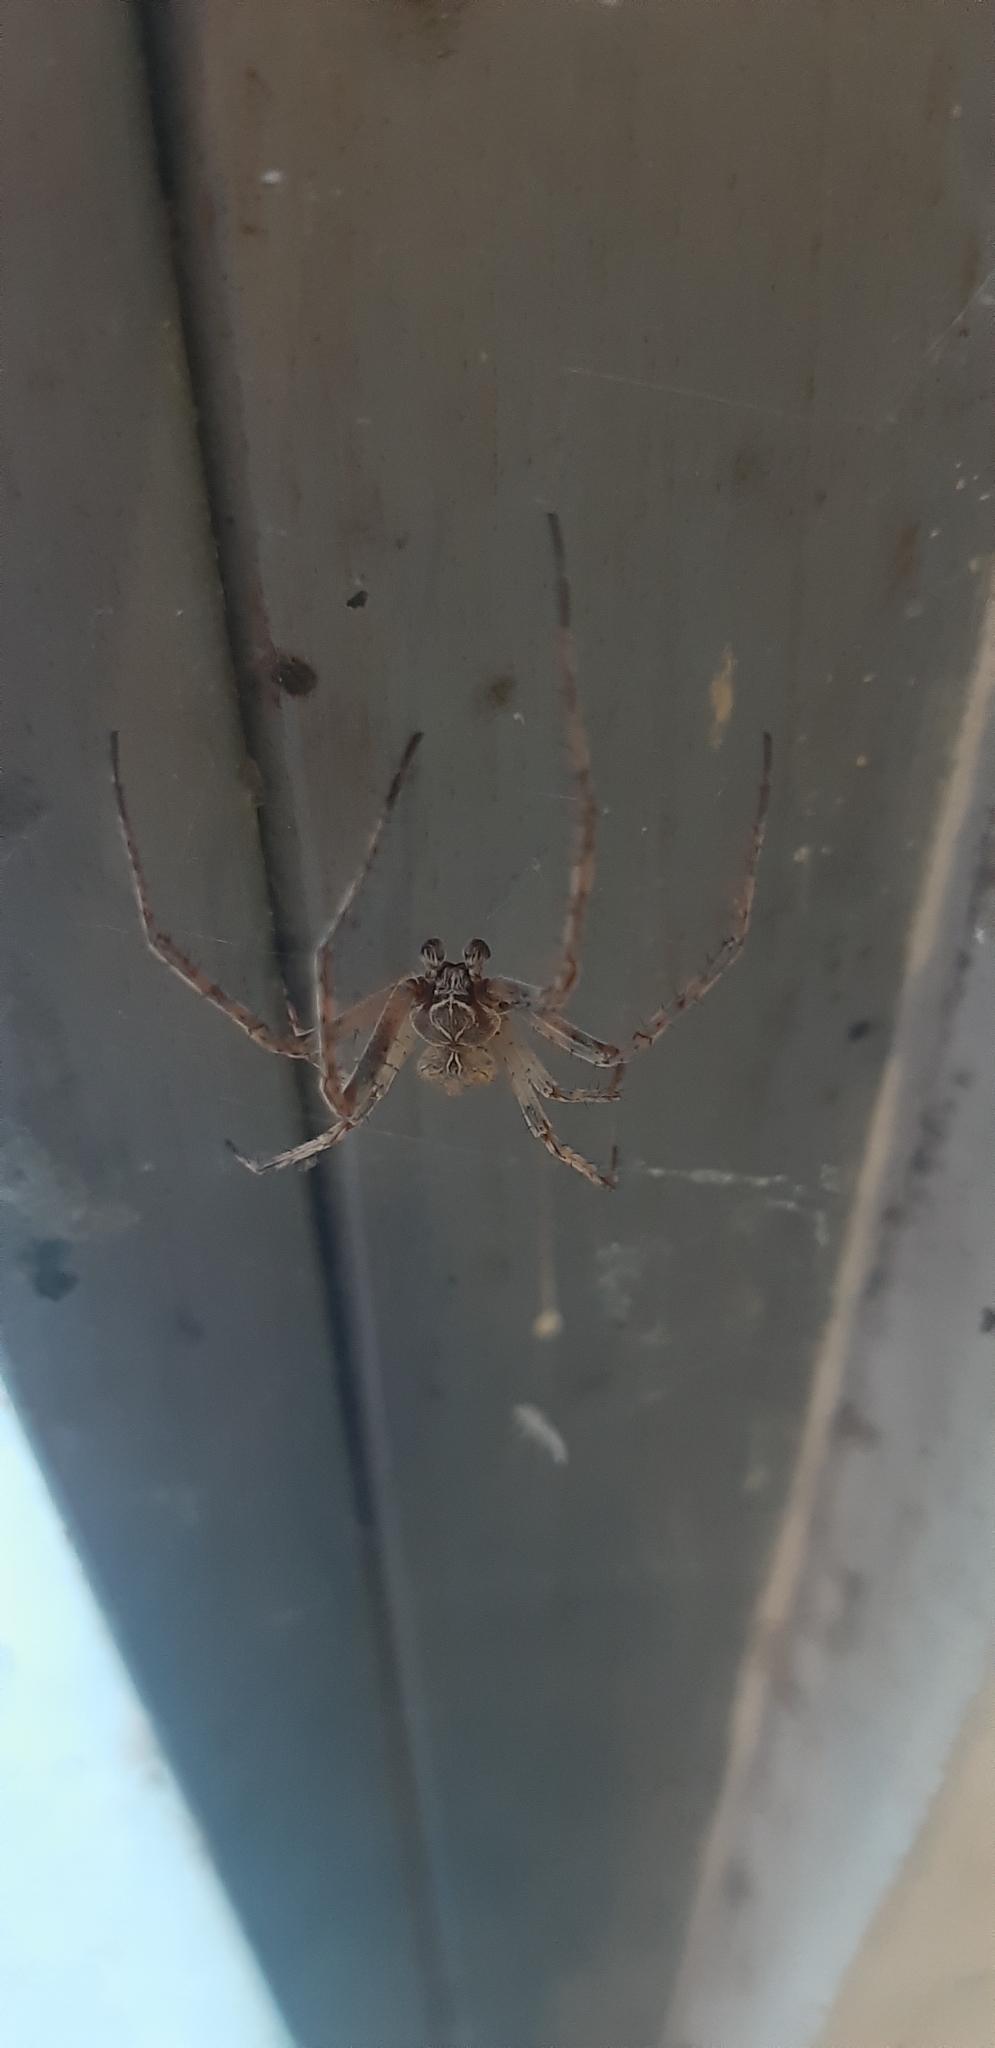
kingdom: Animalia
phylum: Arthropoda
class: Arachnida
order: Araneae
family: Araneidae
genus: Larinioides
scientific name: Larinioides sclopetarius
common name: Bridge orbweaver
